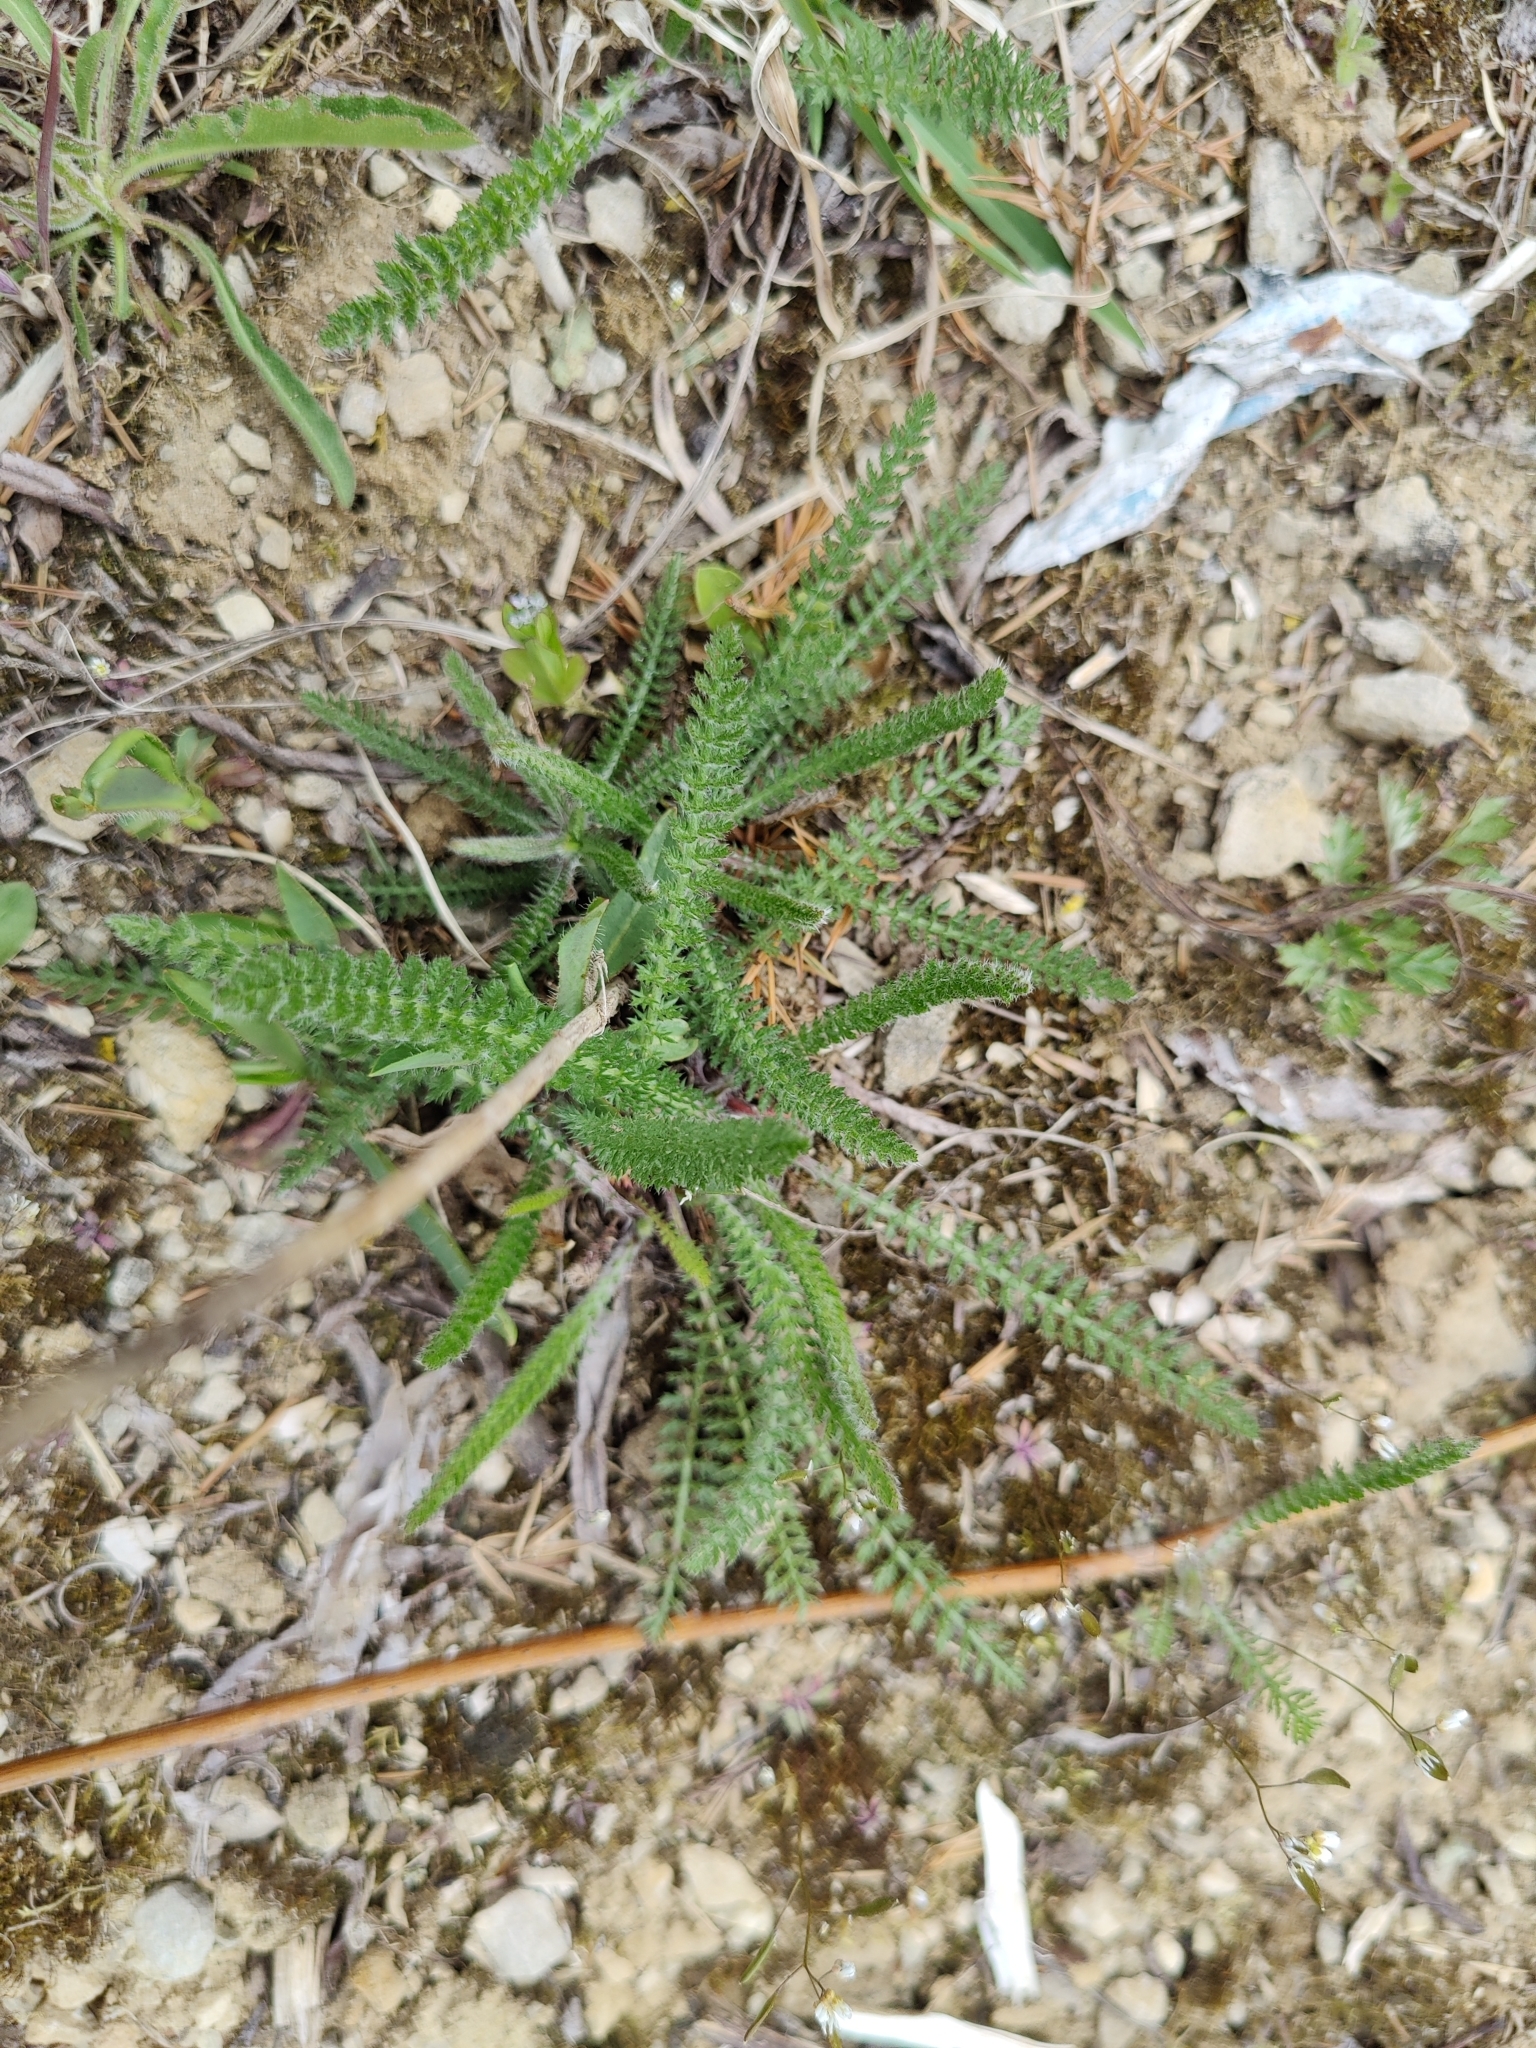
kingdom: Plantae
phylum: Tracheophyta
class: Magnoliopsida
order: Asterales
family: Asteraceae
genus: Achillea
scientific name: Achillea millefolium
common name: Yarrow
